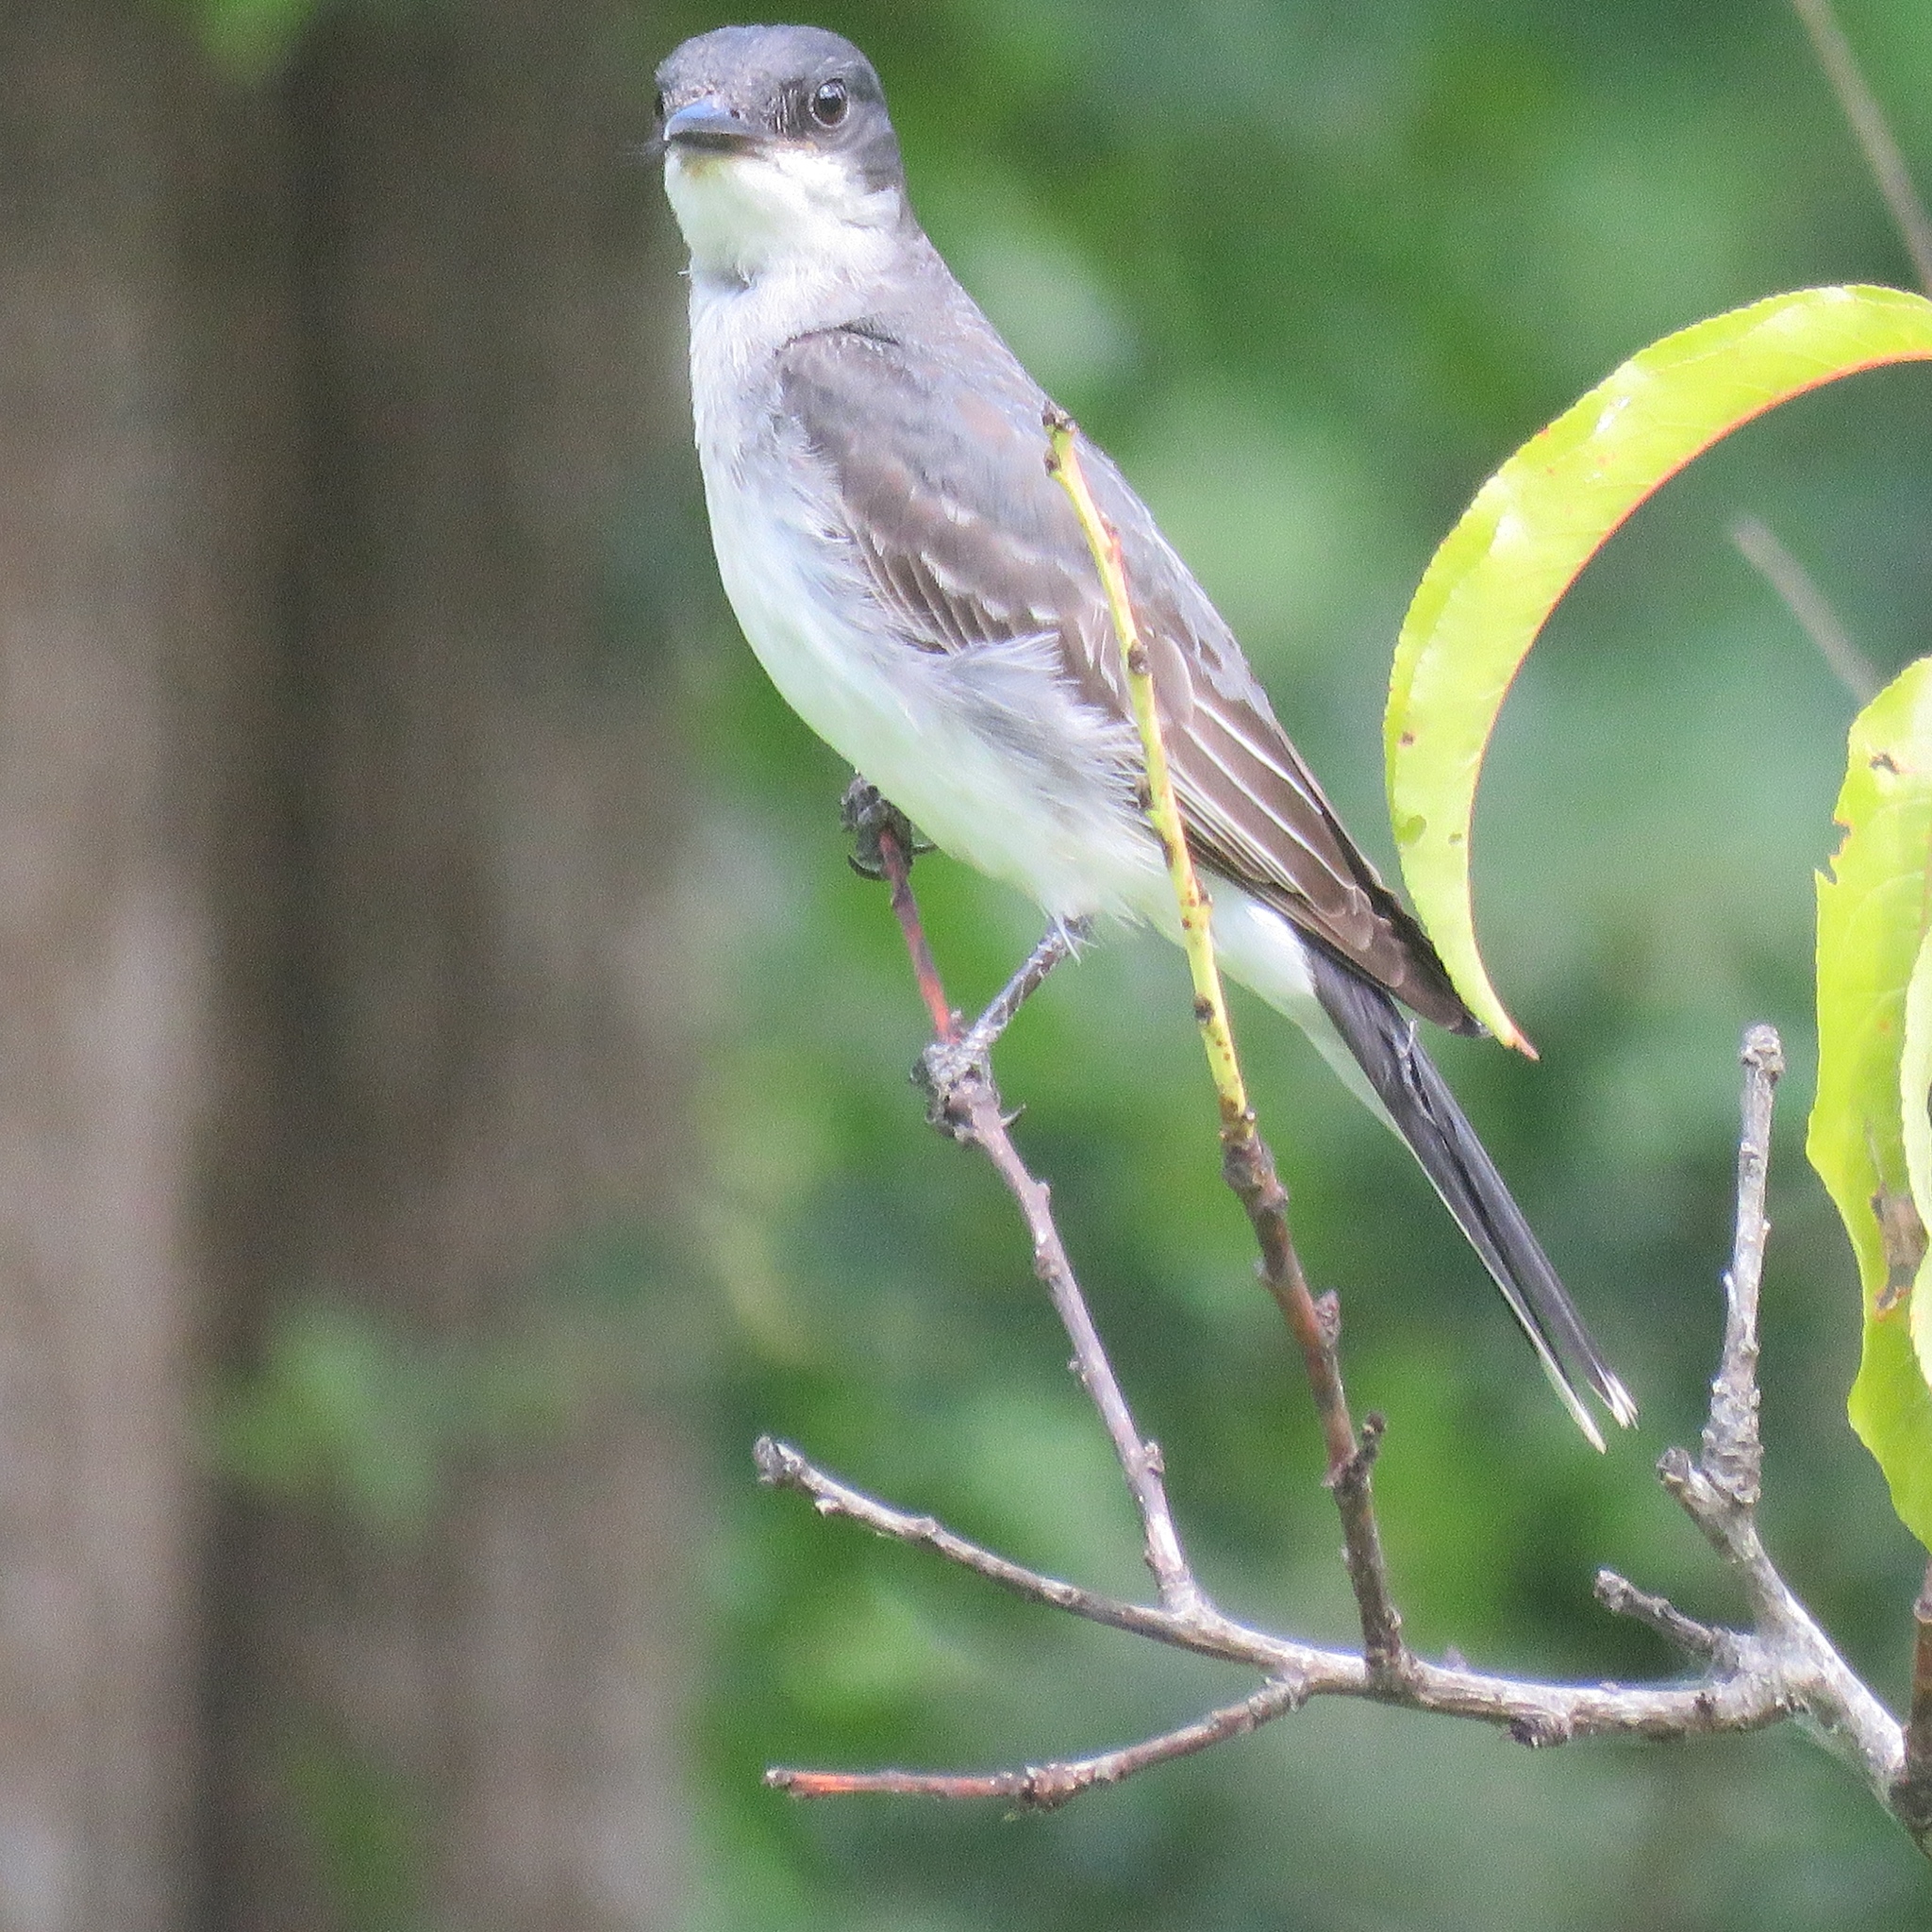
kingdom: Animalia
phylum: Chordata
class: Aves
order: Passeriformes
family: Tyrannidae
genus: Tyrannus
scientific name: Tyrannus tyrannus
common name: Eastern kingbird
